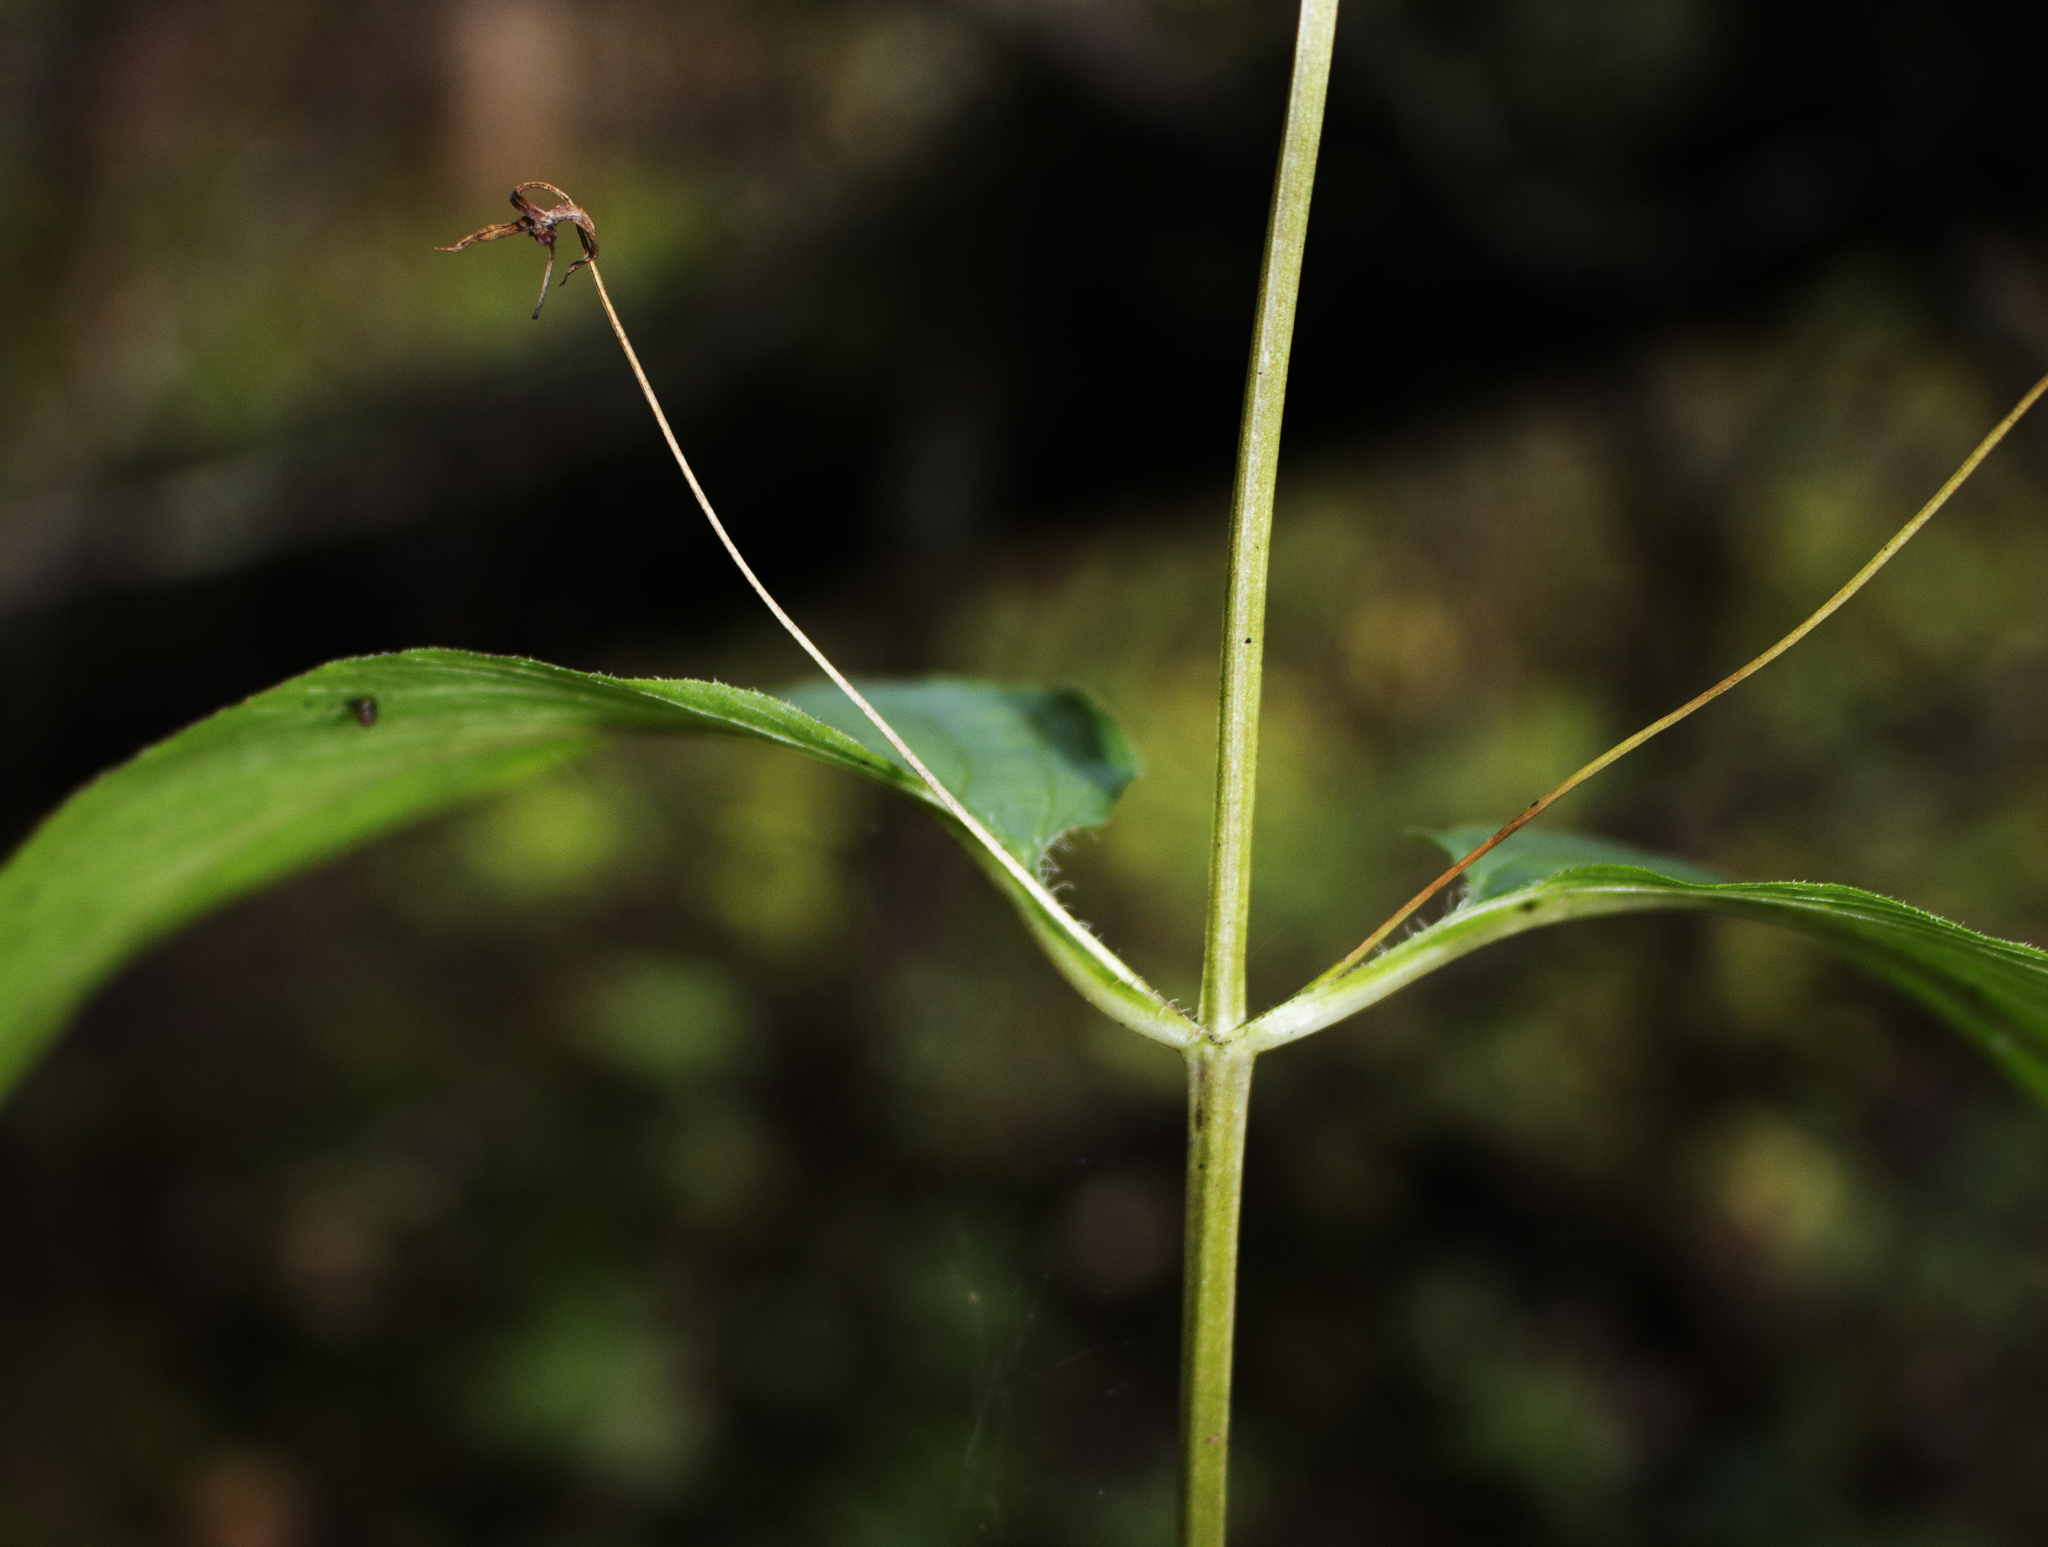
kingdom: Plantae
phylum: Tracheophyta
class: Magnoliopsida
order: Ericales
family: Primulaceae
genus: Lysimachia
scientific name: Lysimachia ciliata
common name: Fringed loosestrife
